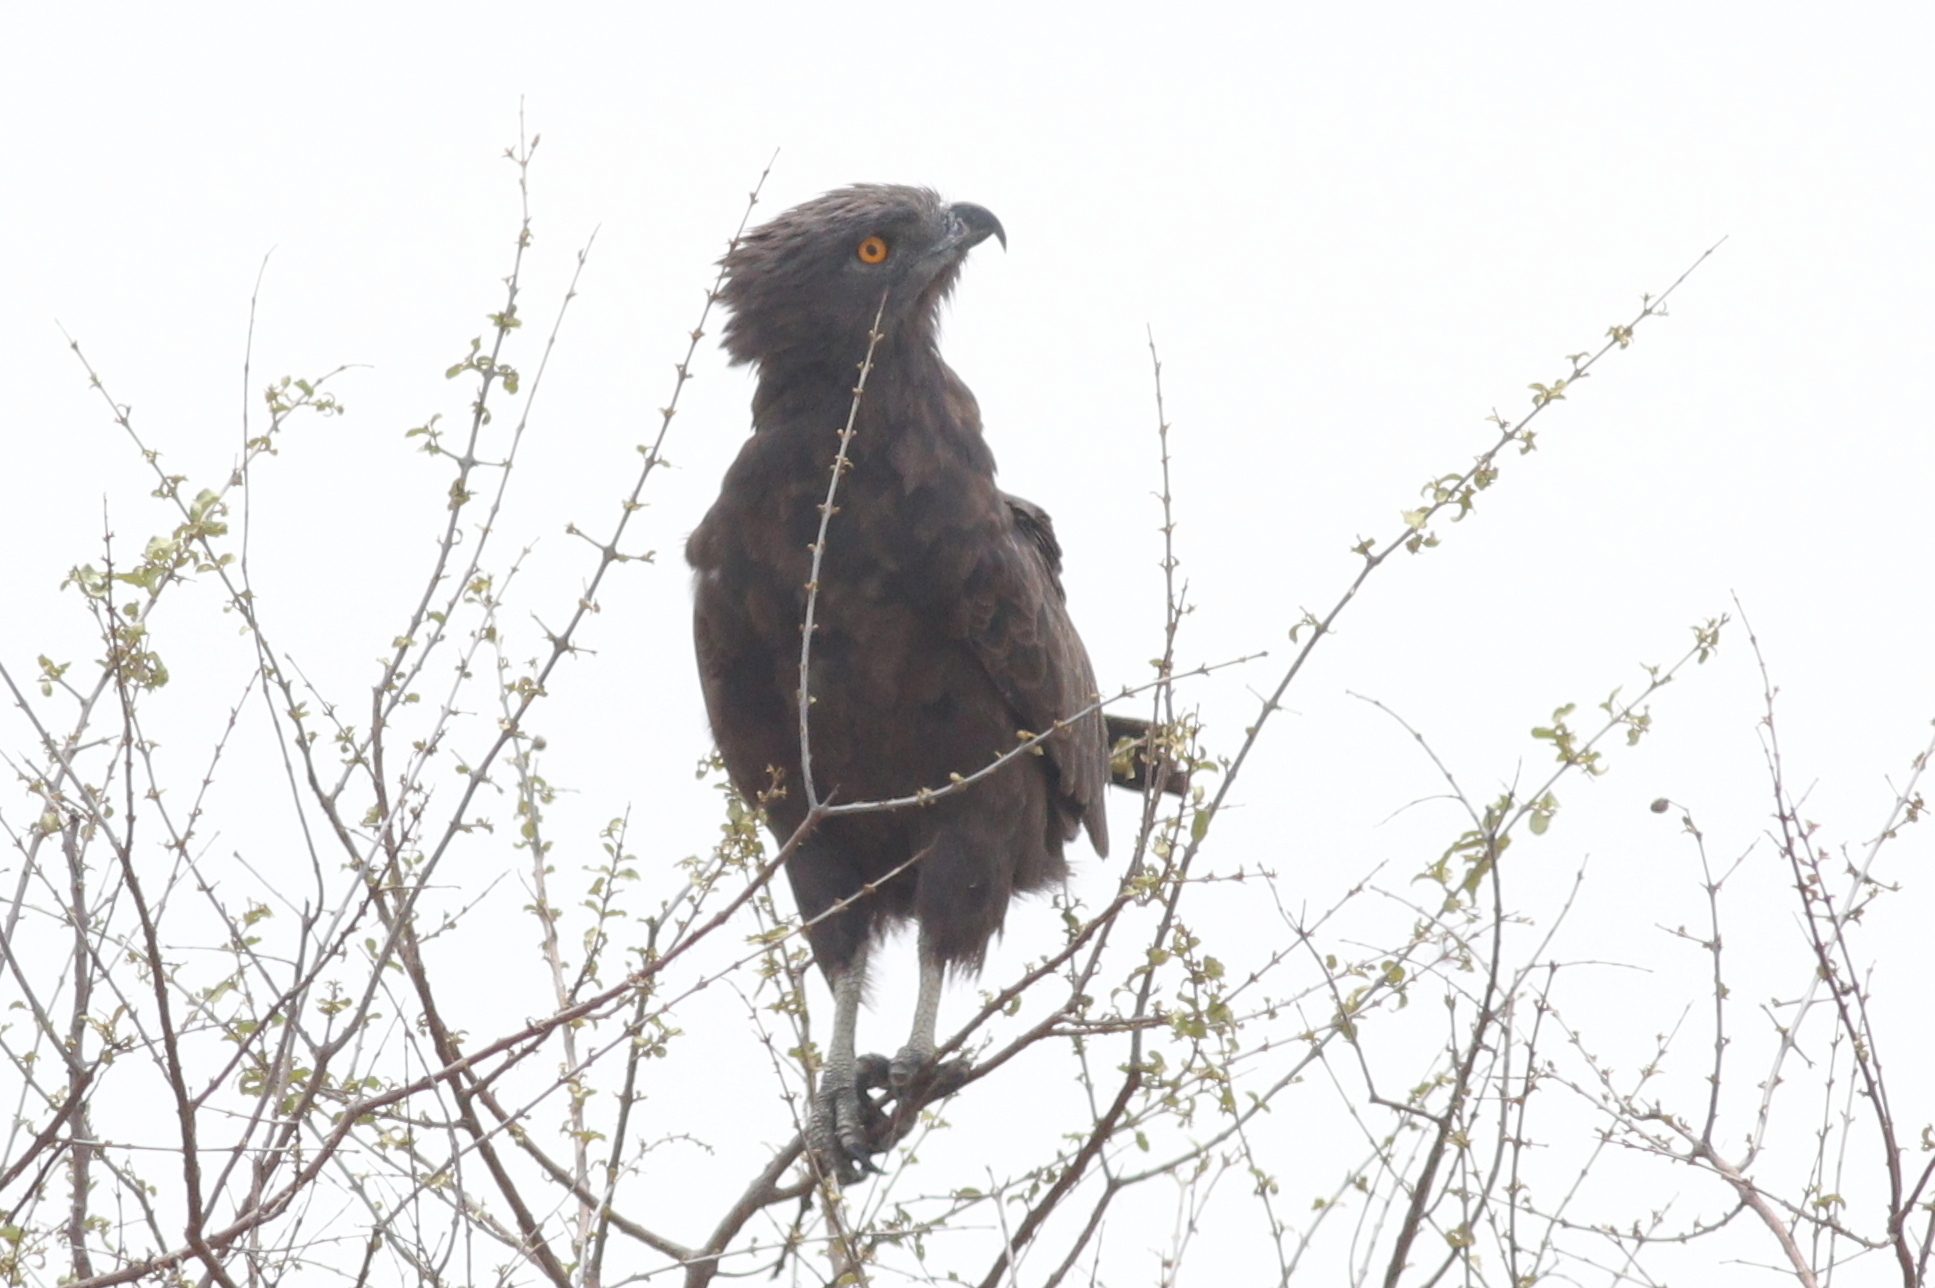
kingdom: Animalia
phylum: Chordata
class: Aves
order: Accipitriformes
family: Accipitridae
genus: Circaetus
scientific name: Circaetus cinereus
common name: Brown snake eagle
